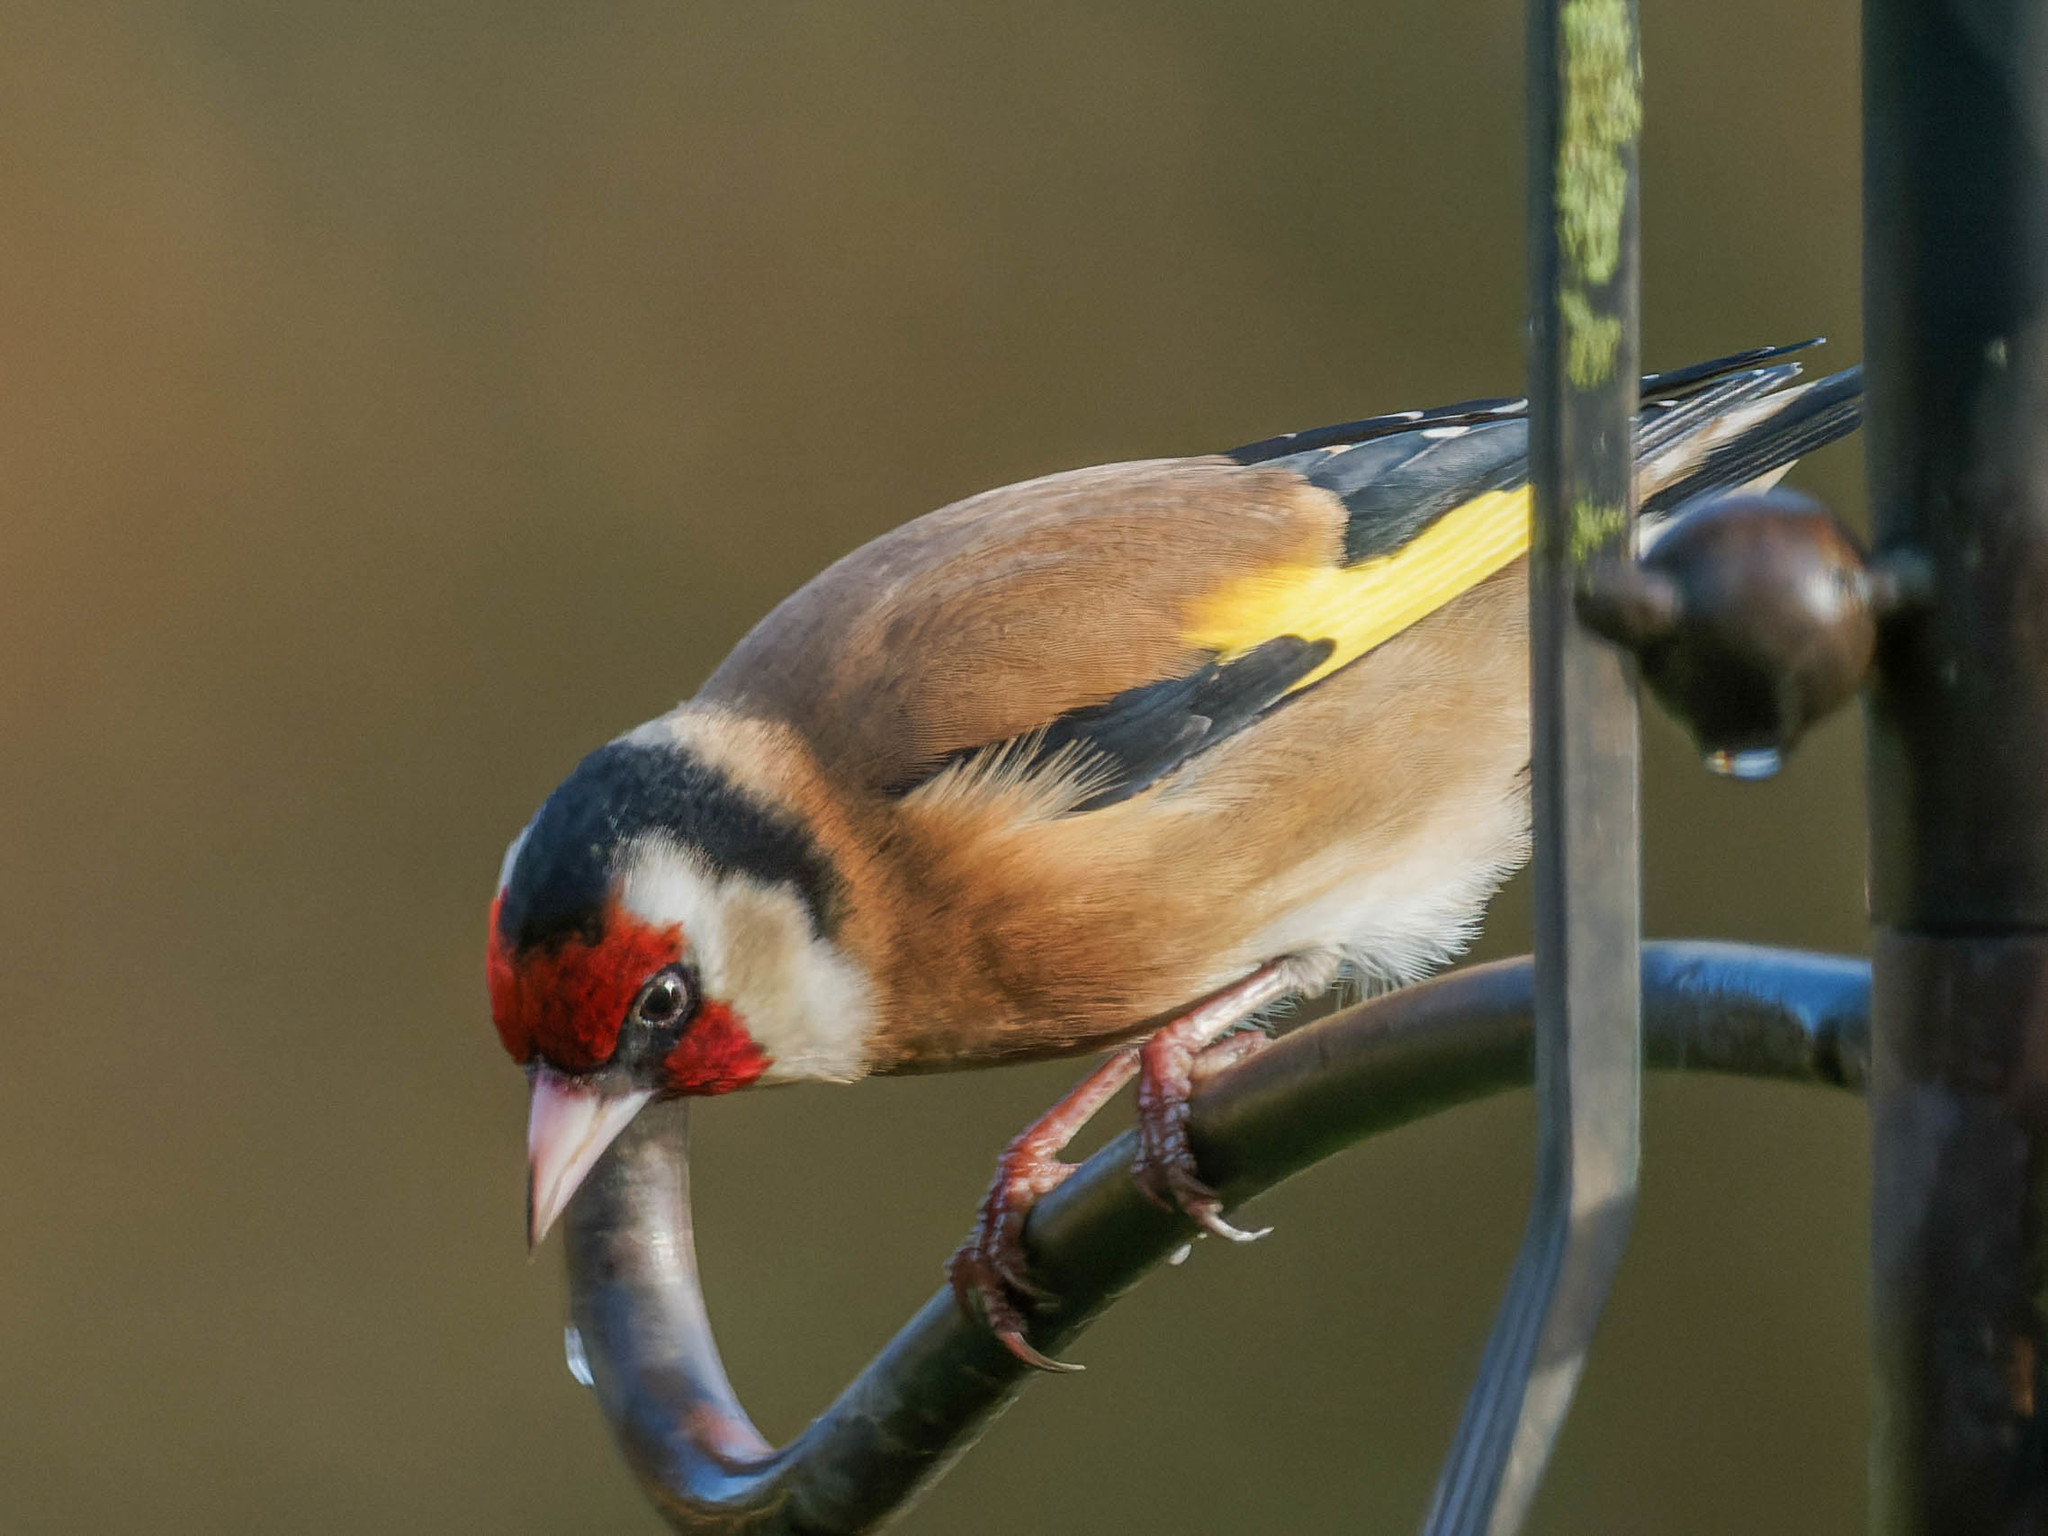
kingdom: Animalia
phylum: Chordata
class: Aves
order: Passeriformes
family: Fringillidae
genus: Carduelis
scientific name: Carduelis carduelis
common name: European goldfinch
